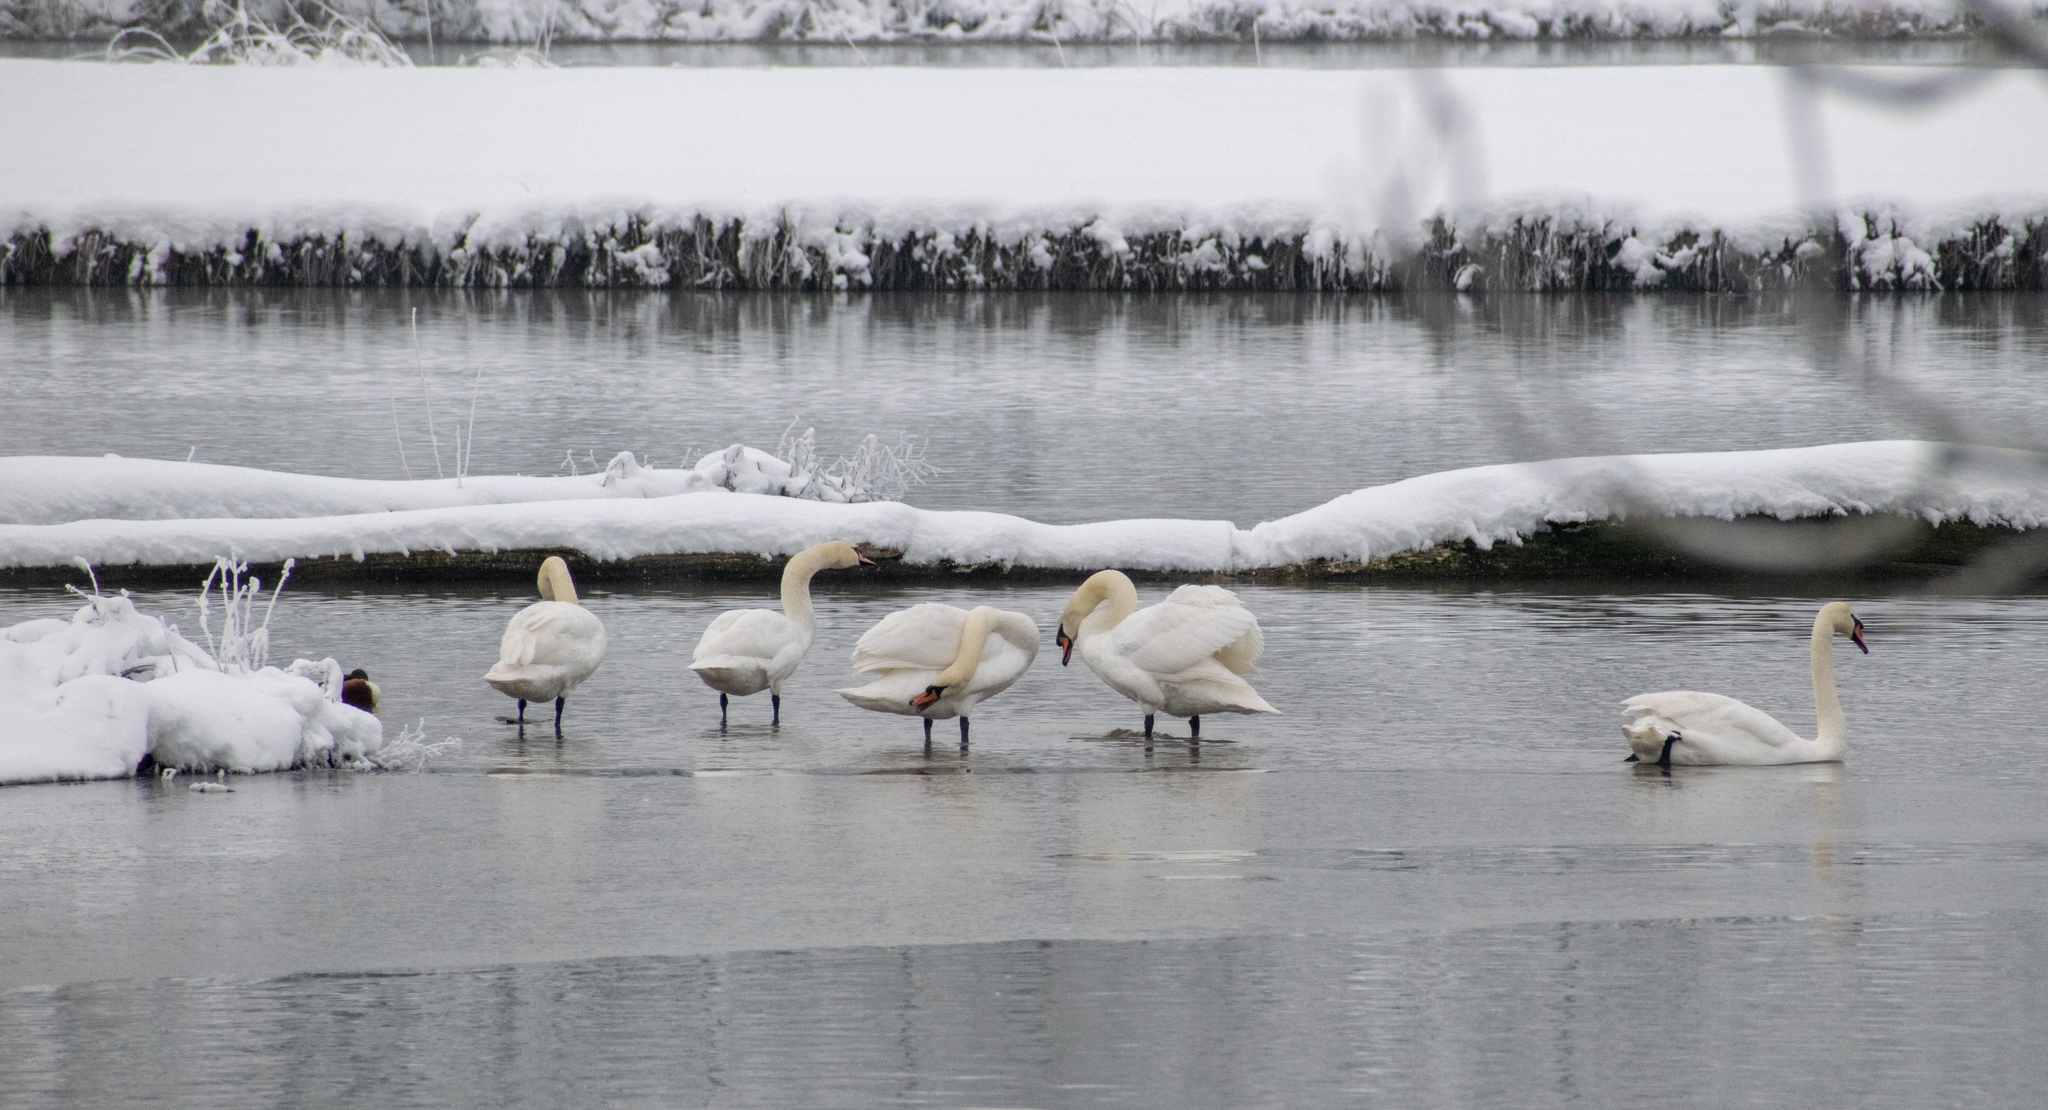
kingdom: Animalia
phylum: Chordata
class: Aves
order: Anseriformes
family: Anatidae
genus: Cygnus
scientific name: Cygnus olor
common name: Mute swan
